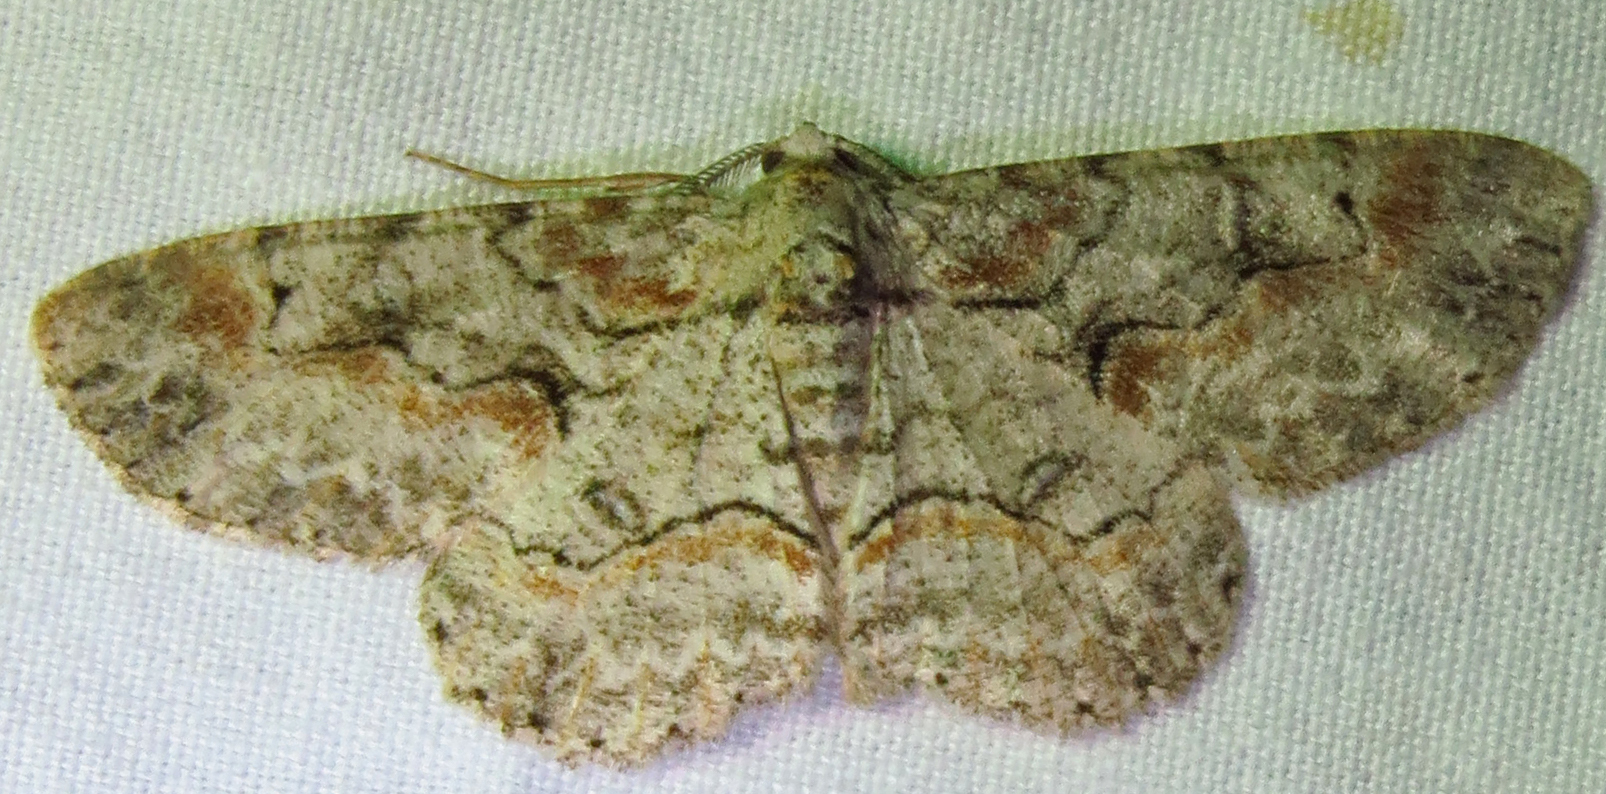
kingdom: Animalia
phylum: Arthropoda
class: Insecta
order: Lepidoptera
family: Geometridae
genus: Iridopsis
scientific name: Iridopsis defectaria
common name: Brown-shaded gray
